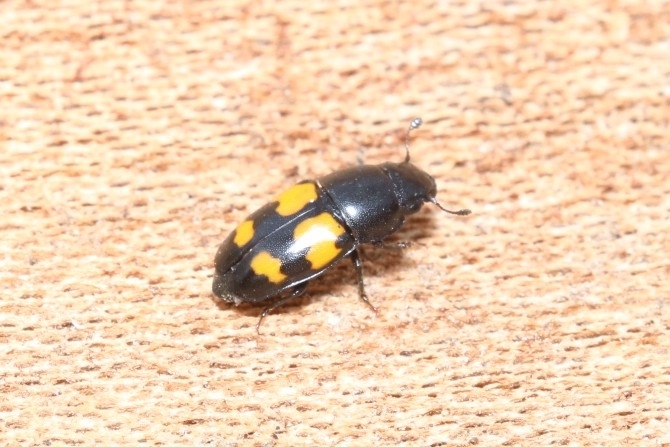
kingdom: Animalia
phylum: Arthropoda
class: Insecta
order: Coleoptera
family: Nitidulidae
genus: Glischrochilus
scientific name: Glischrochilus fasciatus
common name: Picnic beetle
